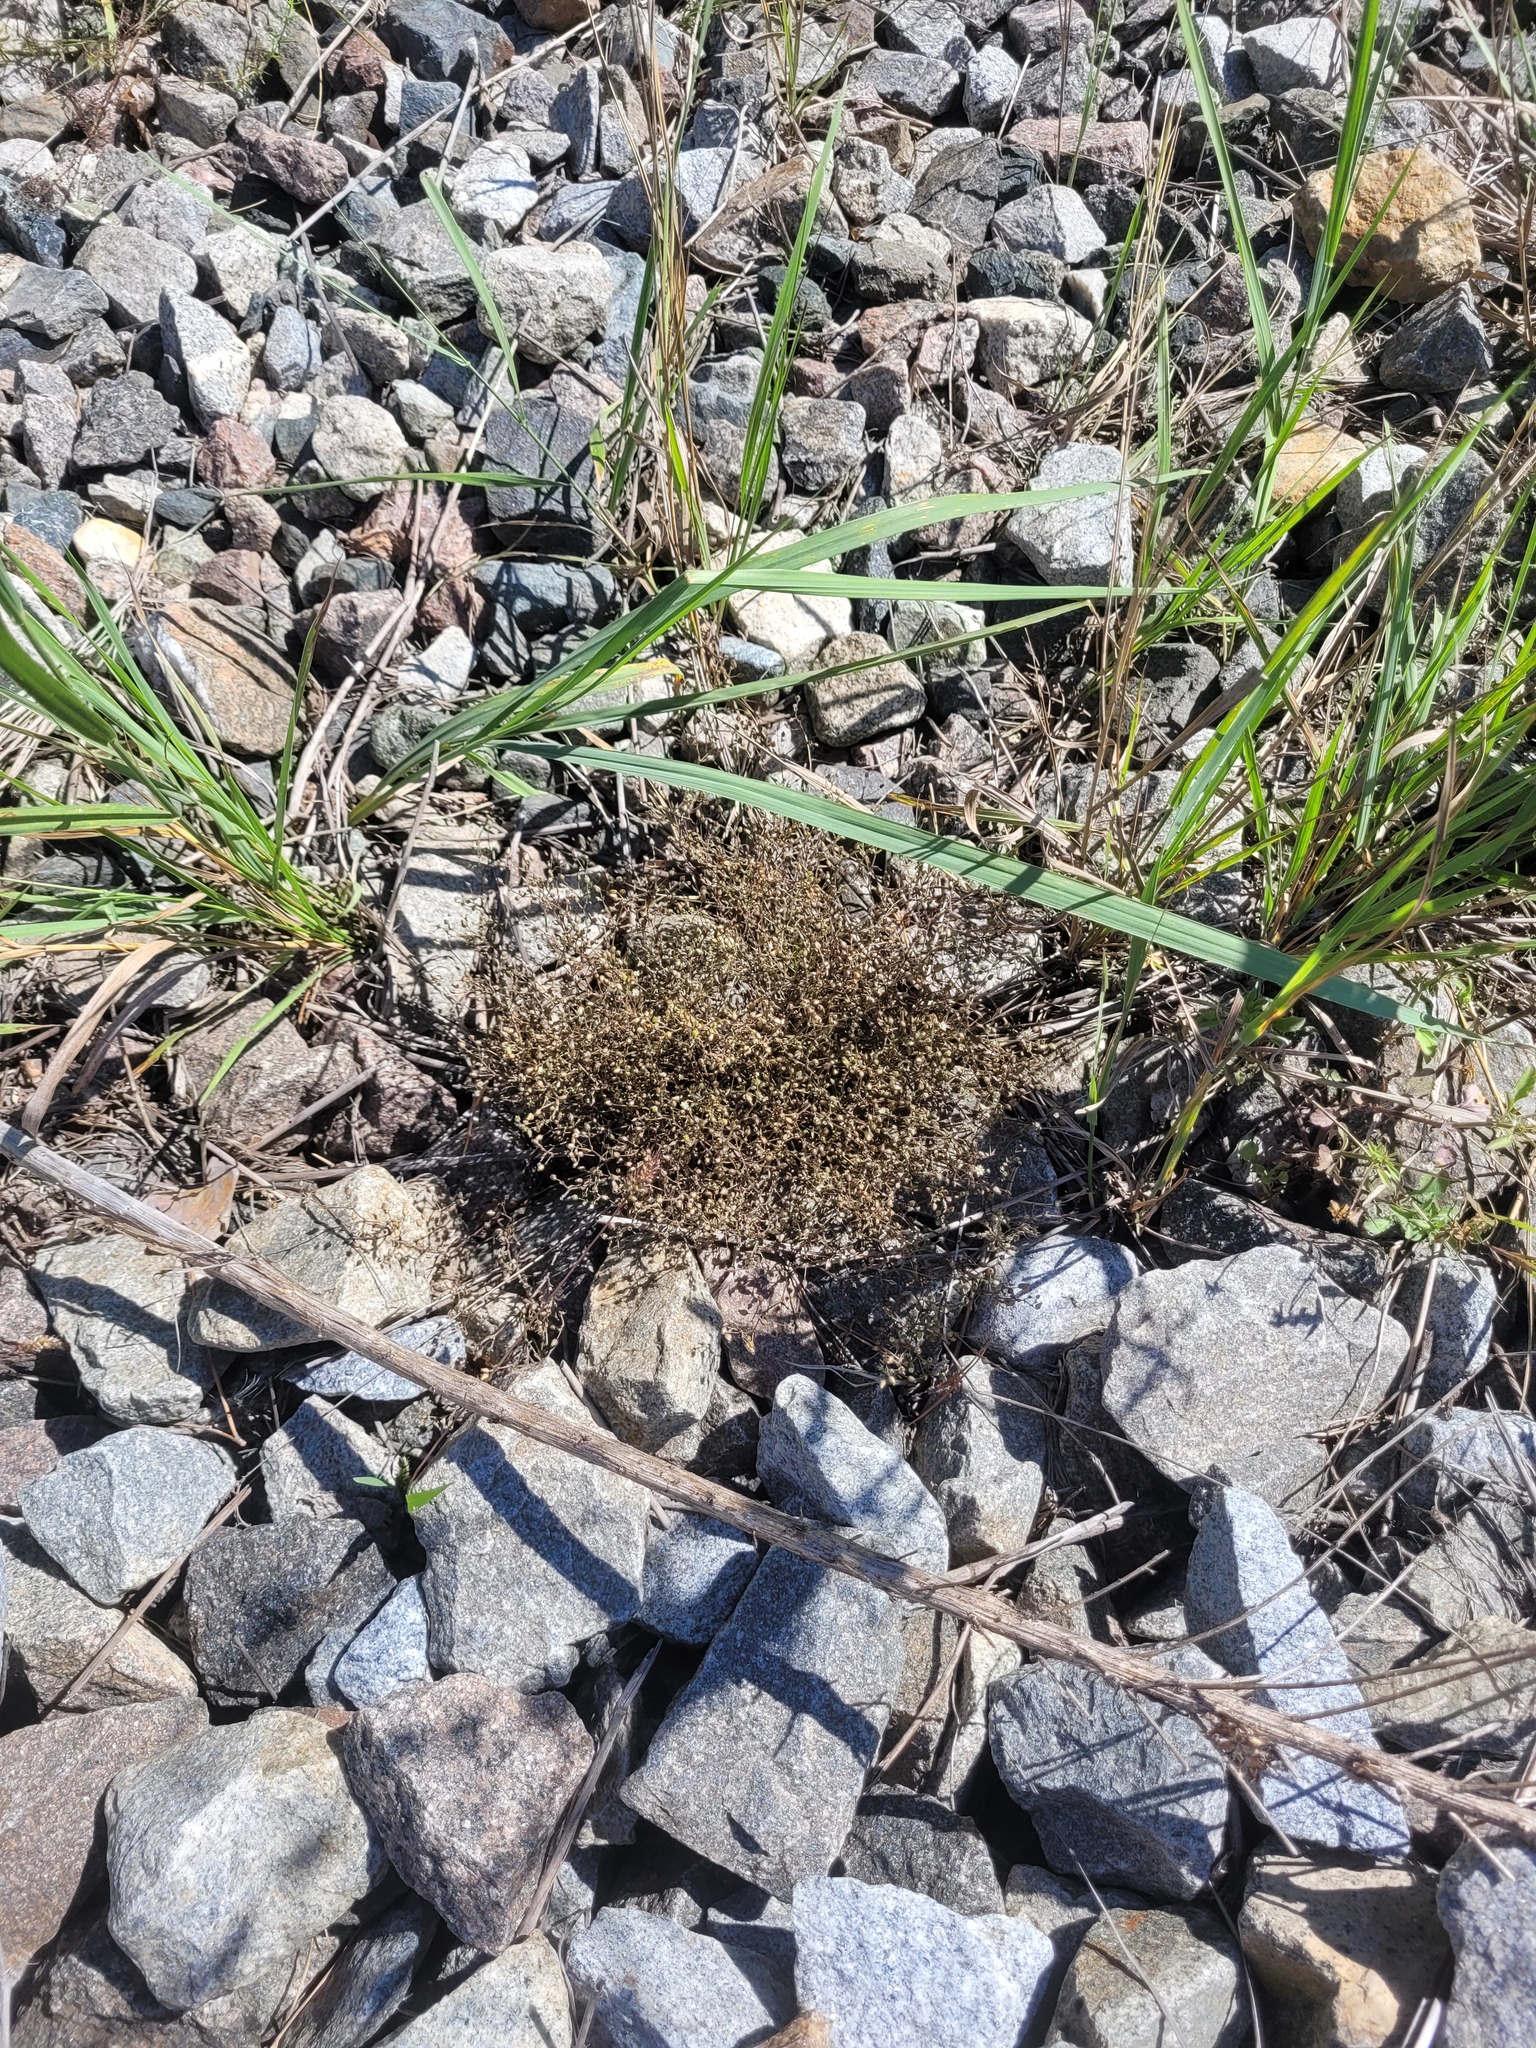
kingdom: Plantae
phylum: Tracheophyta
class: Magnoliopsida
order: Caryophyllales
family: Caryophyllaceae
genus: Arenaria
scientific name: Arenaria serpyllifolia
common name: Thyme-leaved sandwort
